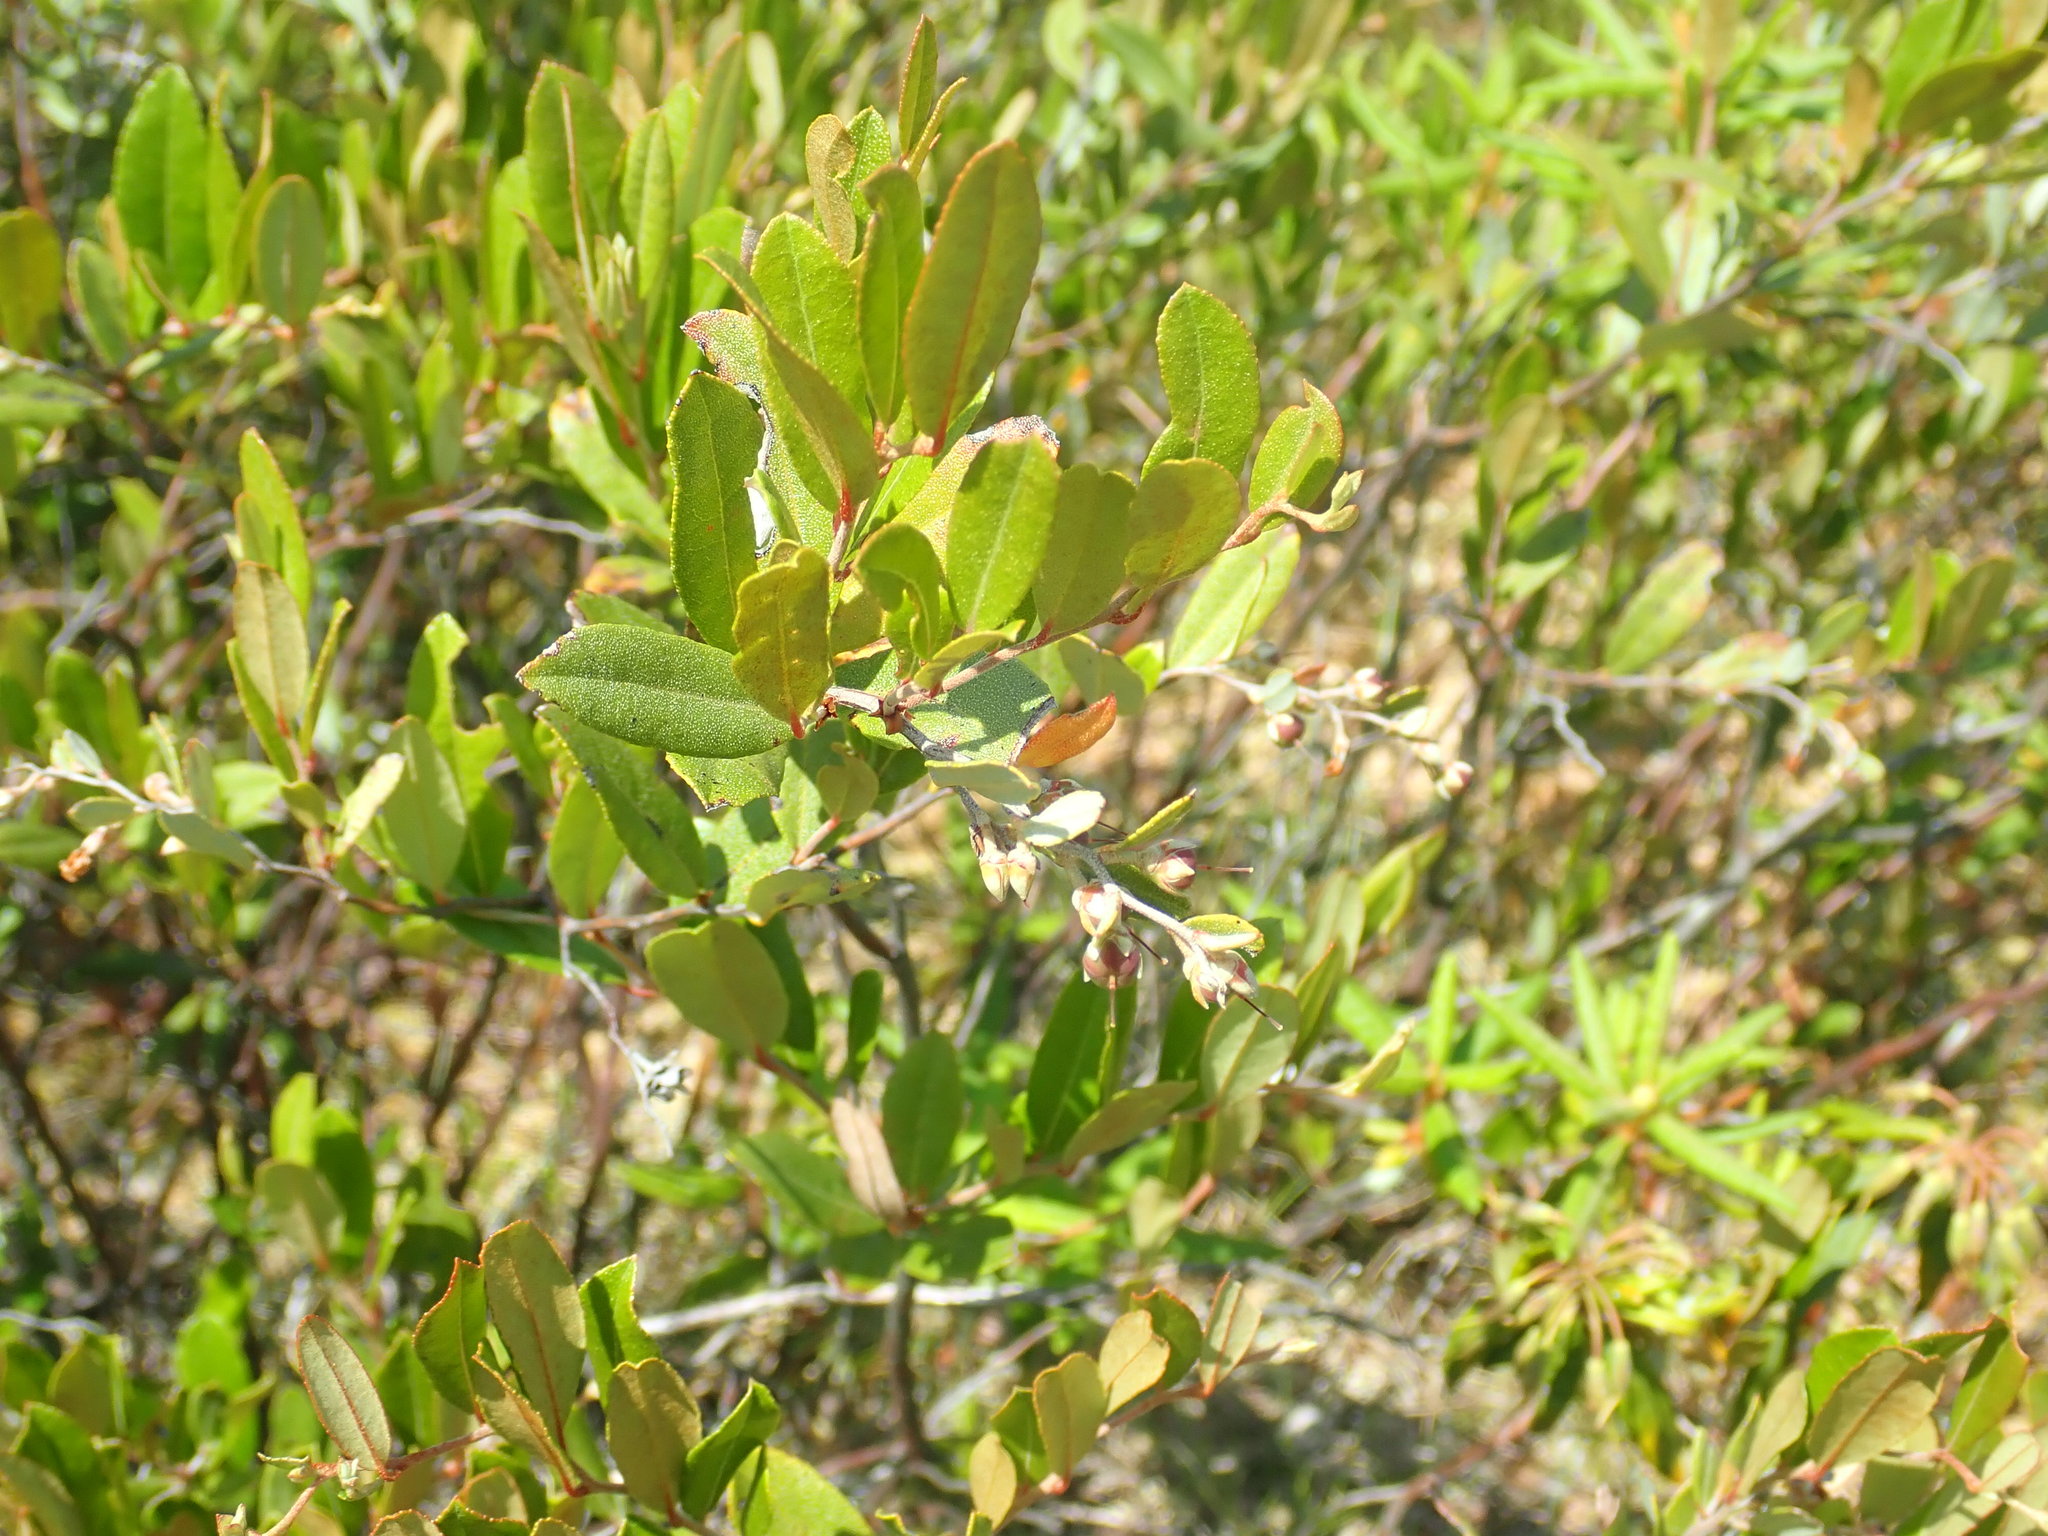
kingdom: Plantae
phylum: Tracheophyta
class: Magnoliopsida
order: Ericales
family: Ericaceae
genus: Chamaedaphne
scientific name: Chamaedaphne calyculata
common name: Leatherleaf
